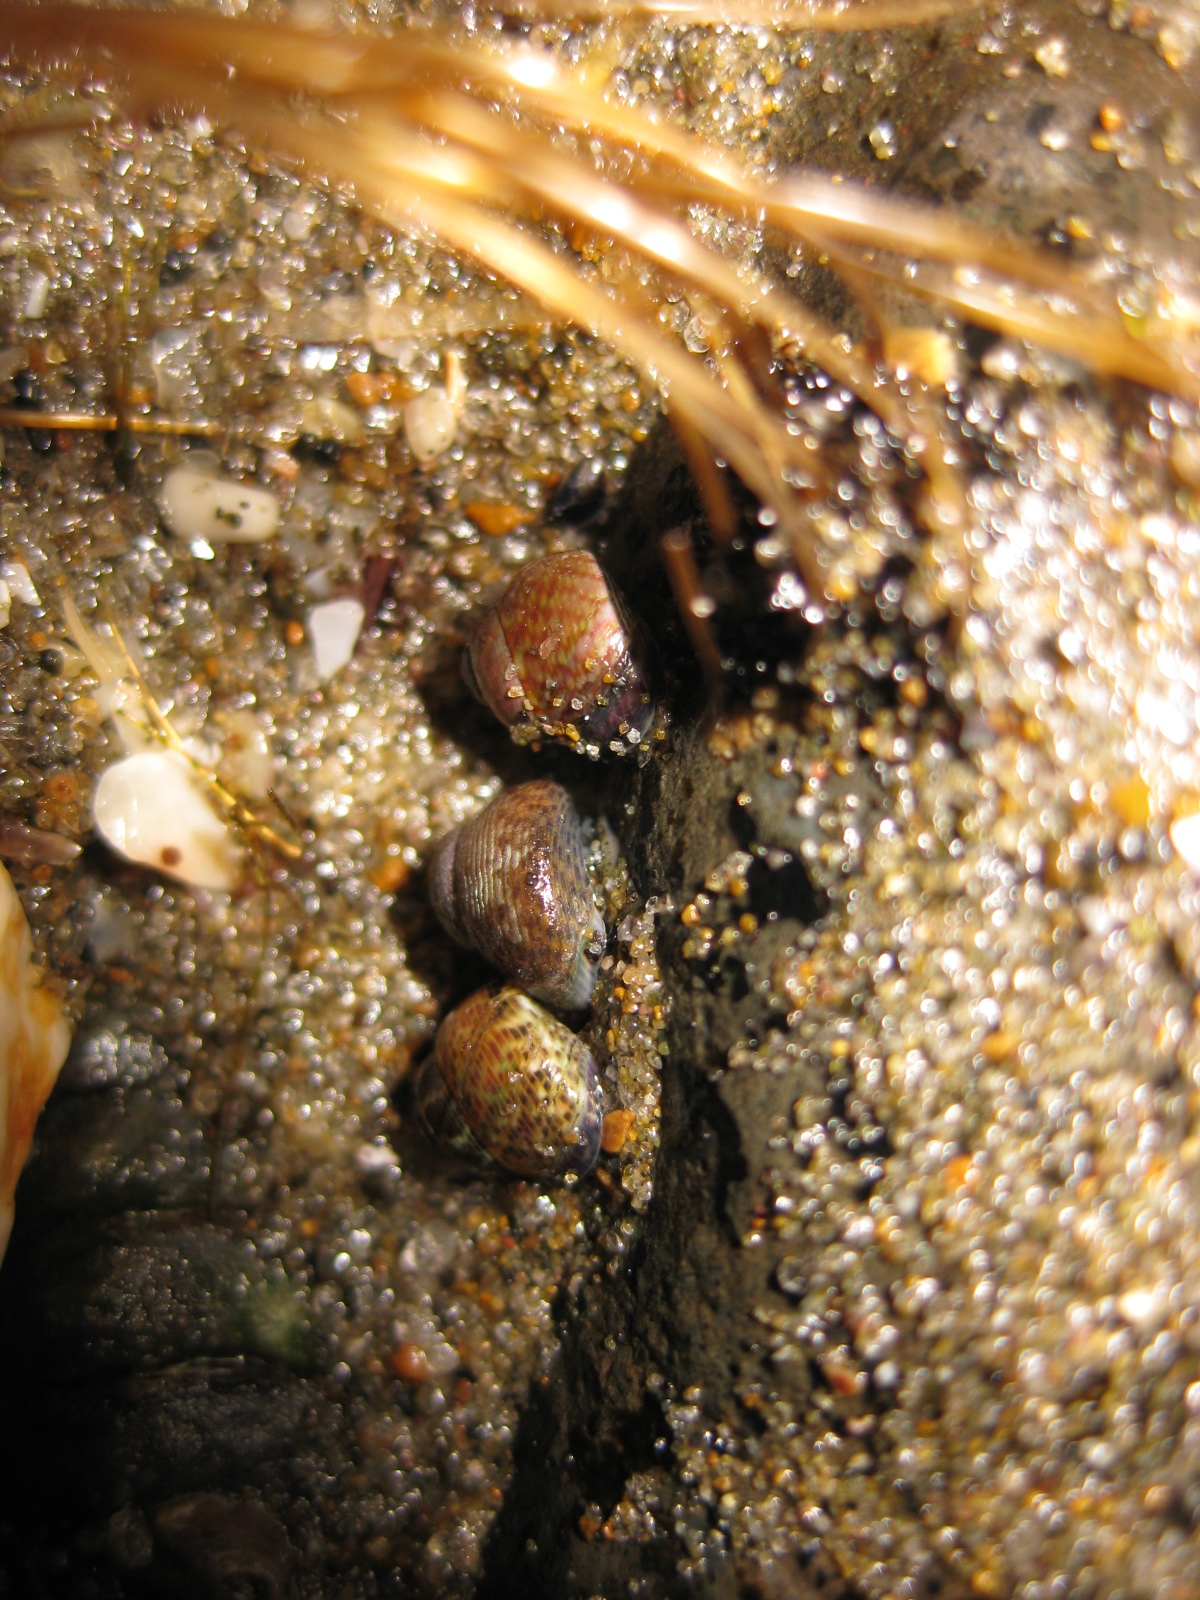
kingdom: Animalia
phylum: Mollusca
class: Gastropoda
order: Trochida
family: Trochidae
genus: Micrelenchus
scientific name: Micrelenchus tessellatus
